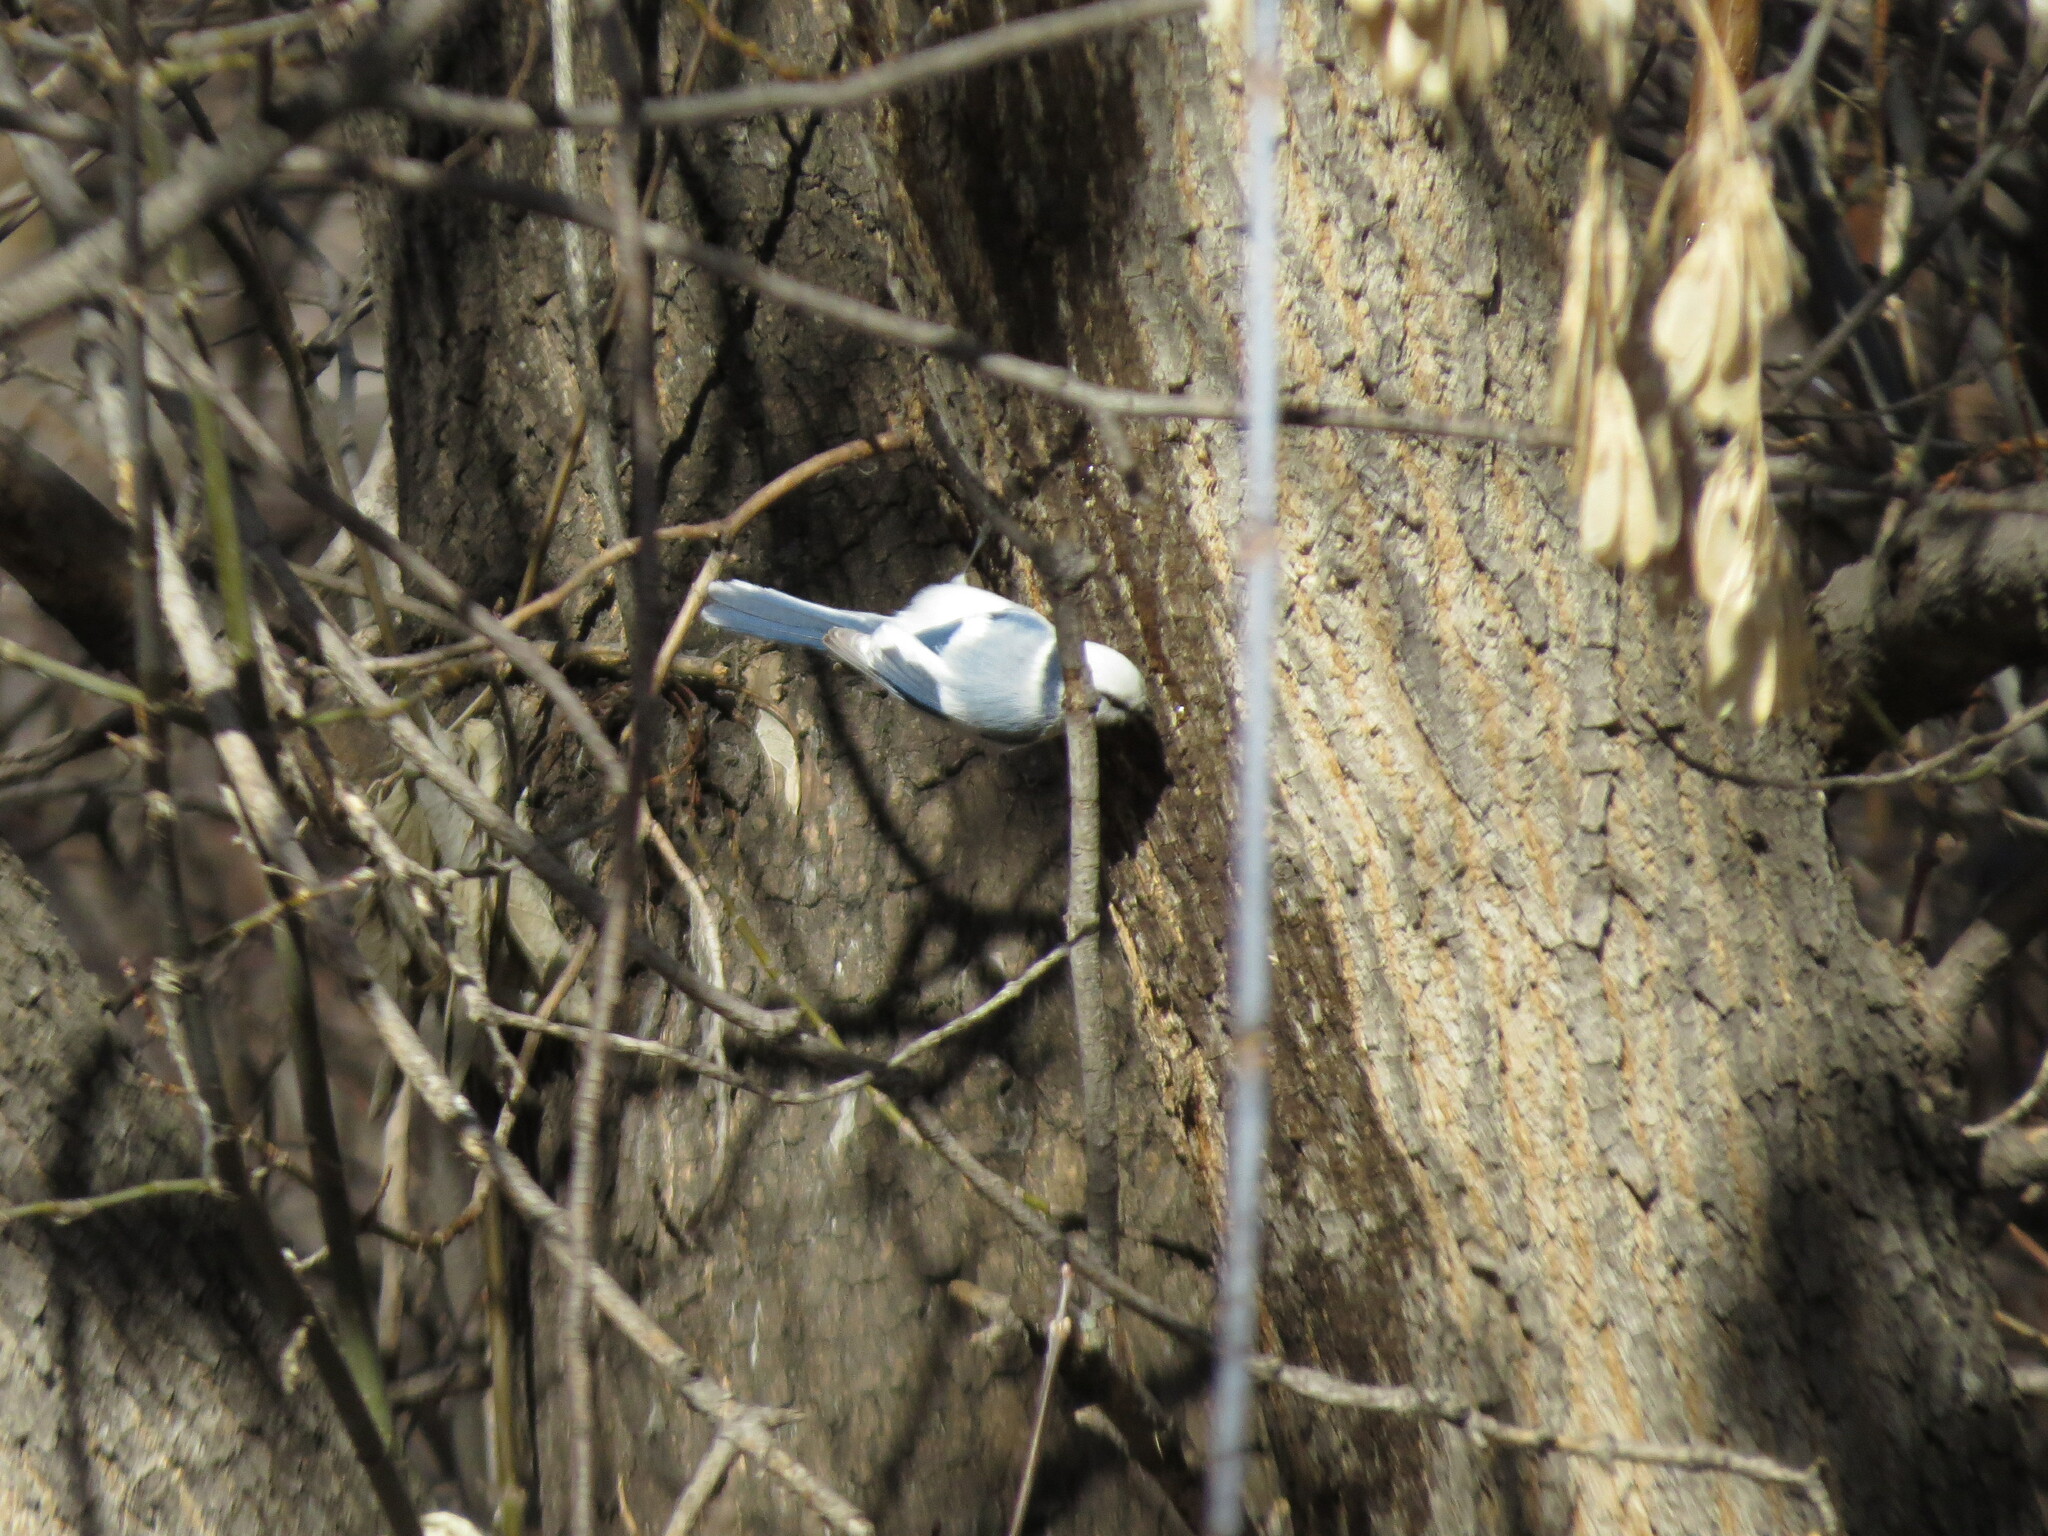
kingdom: Animalia
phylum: Chordata
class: Aves
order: Passeriformes
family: Paridae
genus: Cyanistes
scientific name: Cyanistes cyanus
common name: Azure tit
